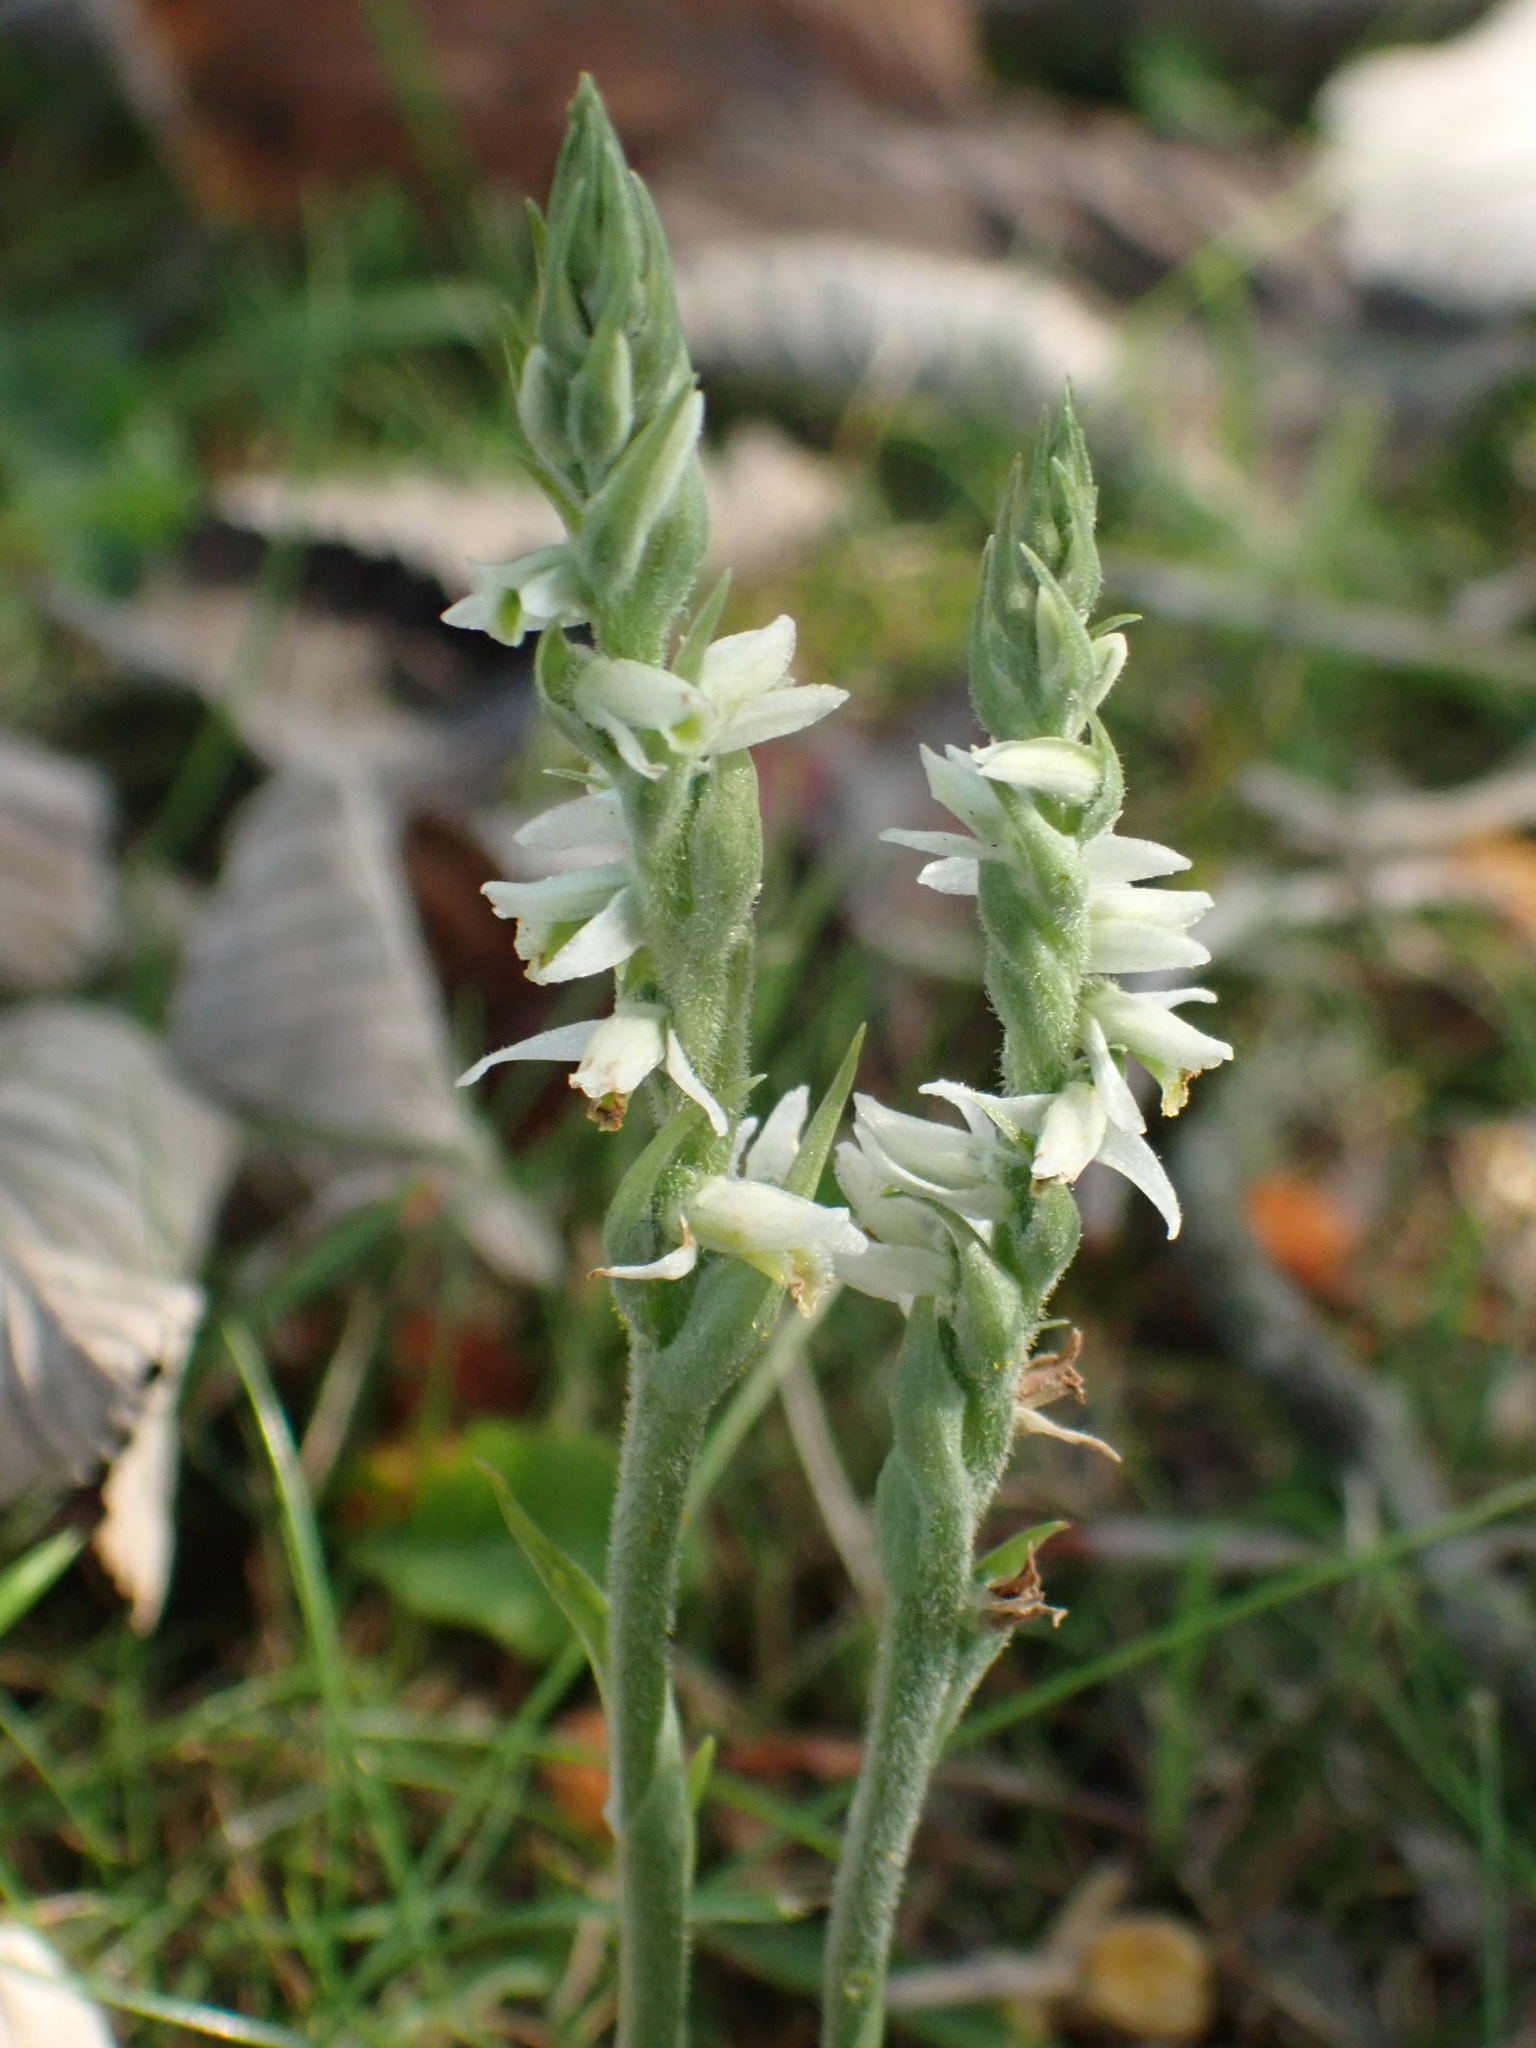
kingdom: Plantae
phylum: Tracheophyta
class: Liliopsida
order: Asparagales
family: Orchidaceae
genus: Spiranthes
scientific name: Spiranthes spiralis
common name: Autumn lady's-tresses
